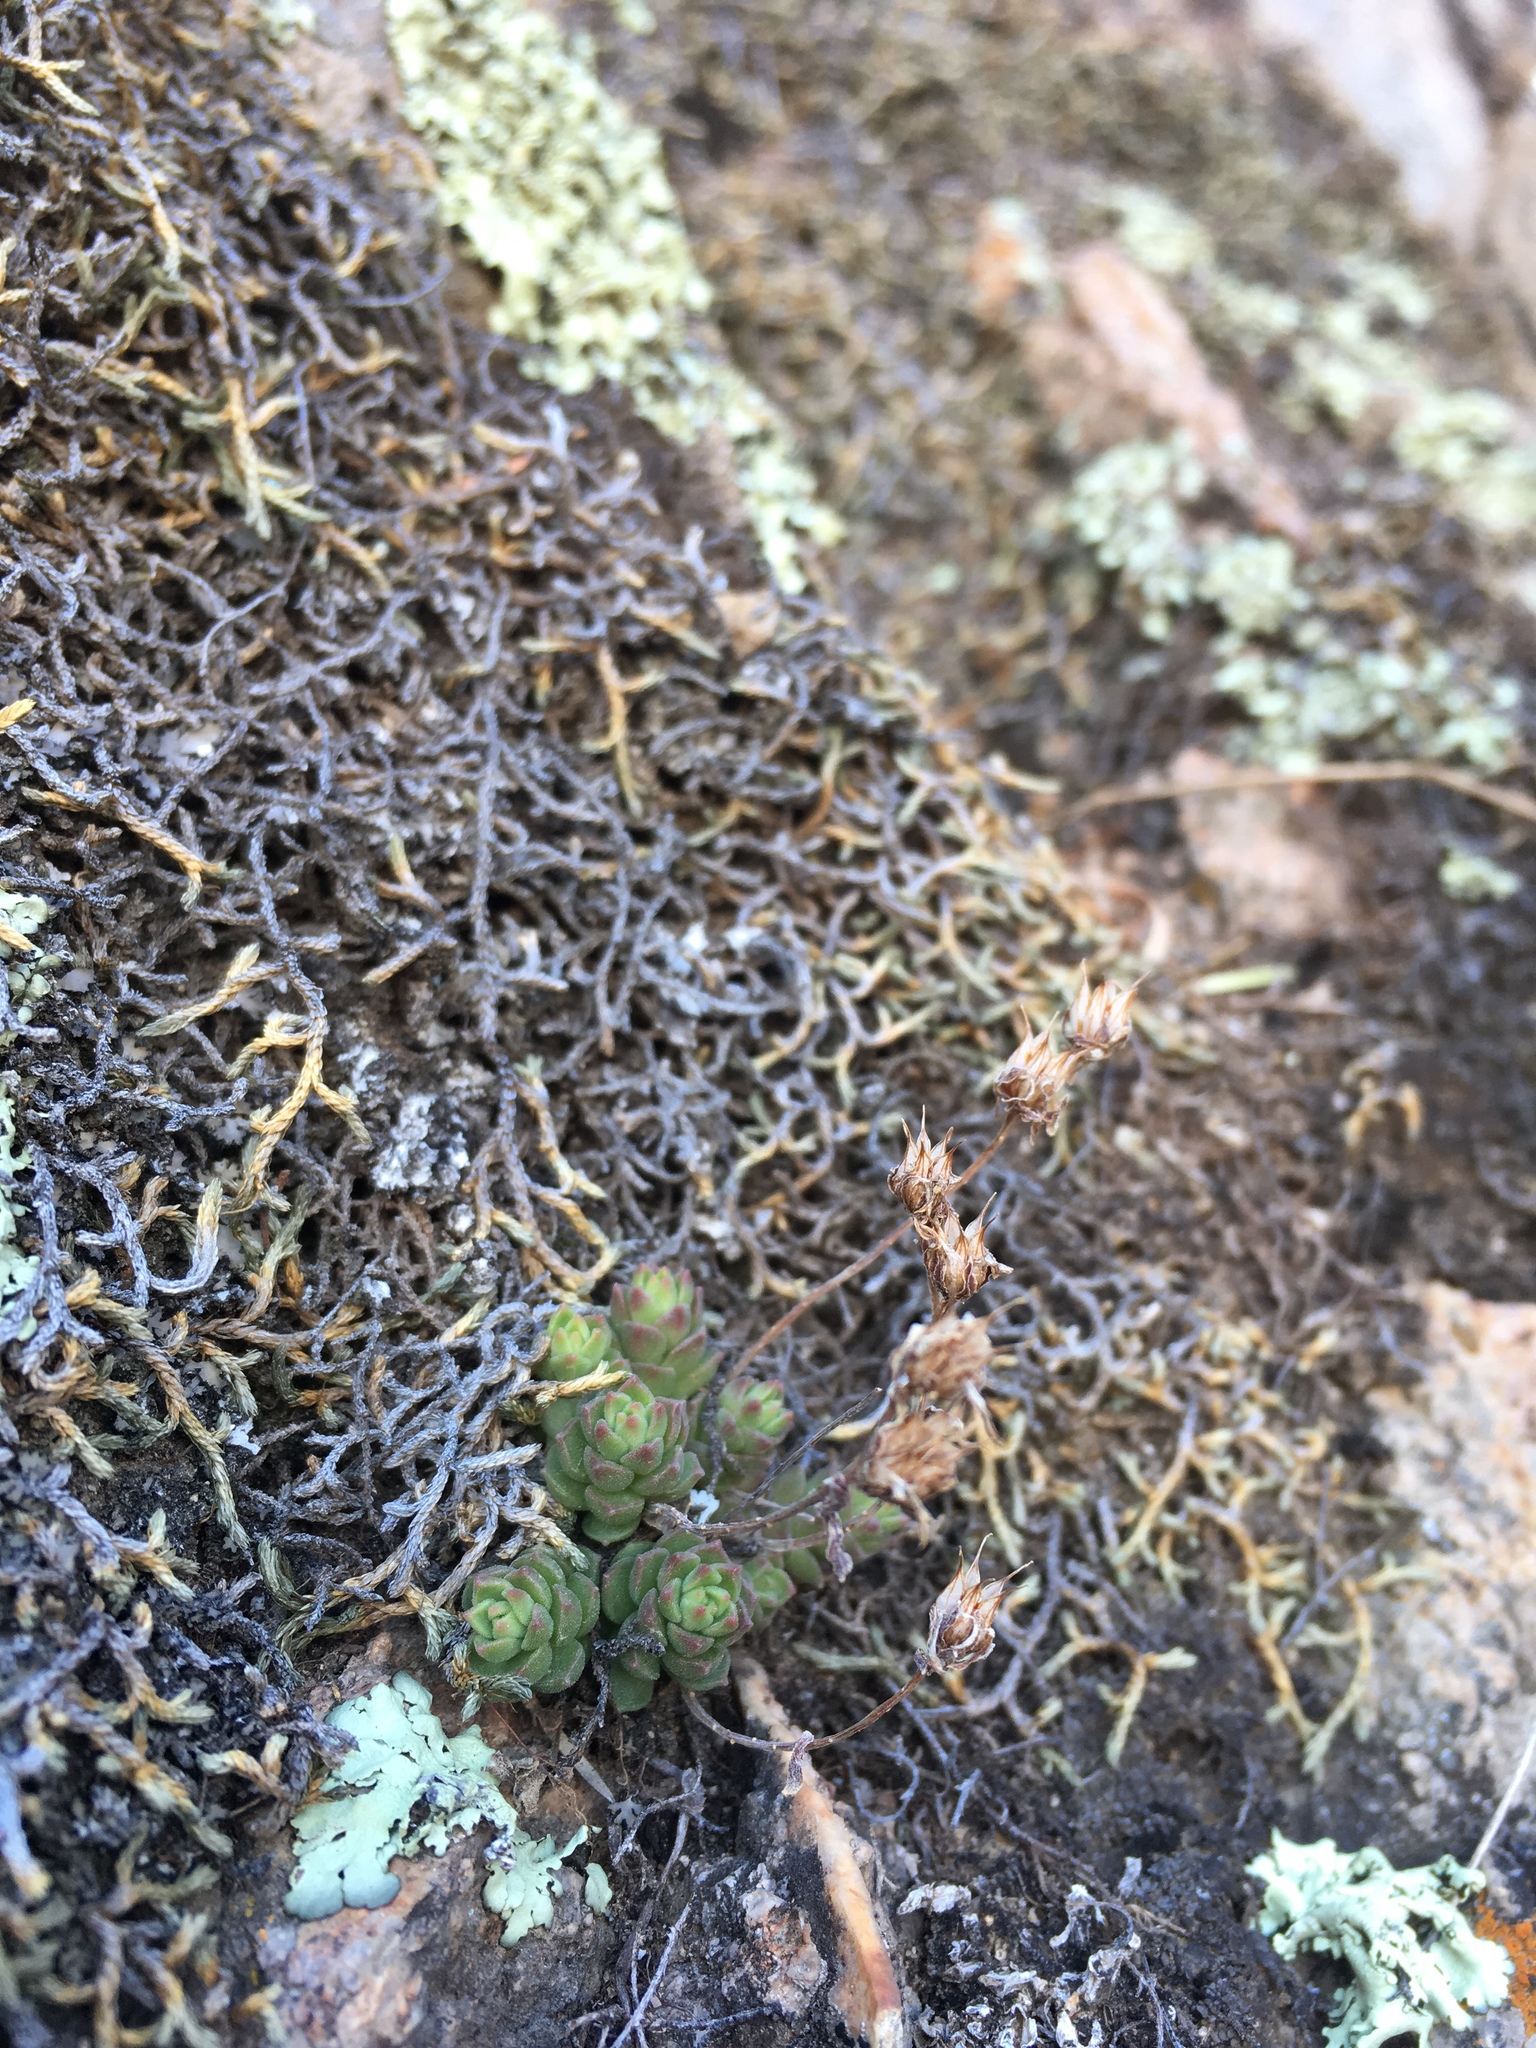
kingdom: Plantae
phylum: Tracheophyta
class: Magnoliopsida
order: Saxifragales
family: Crassulaceae
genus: Sedum
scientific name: Sedum cockerellii
